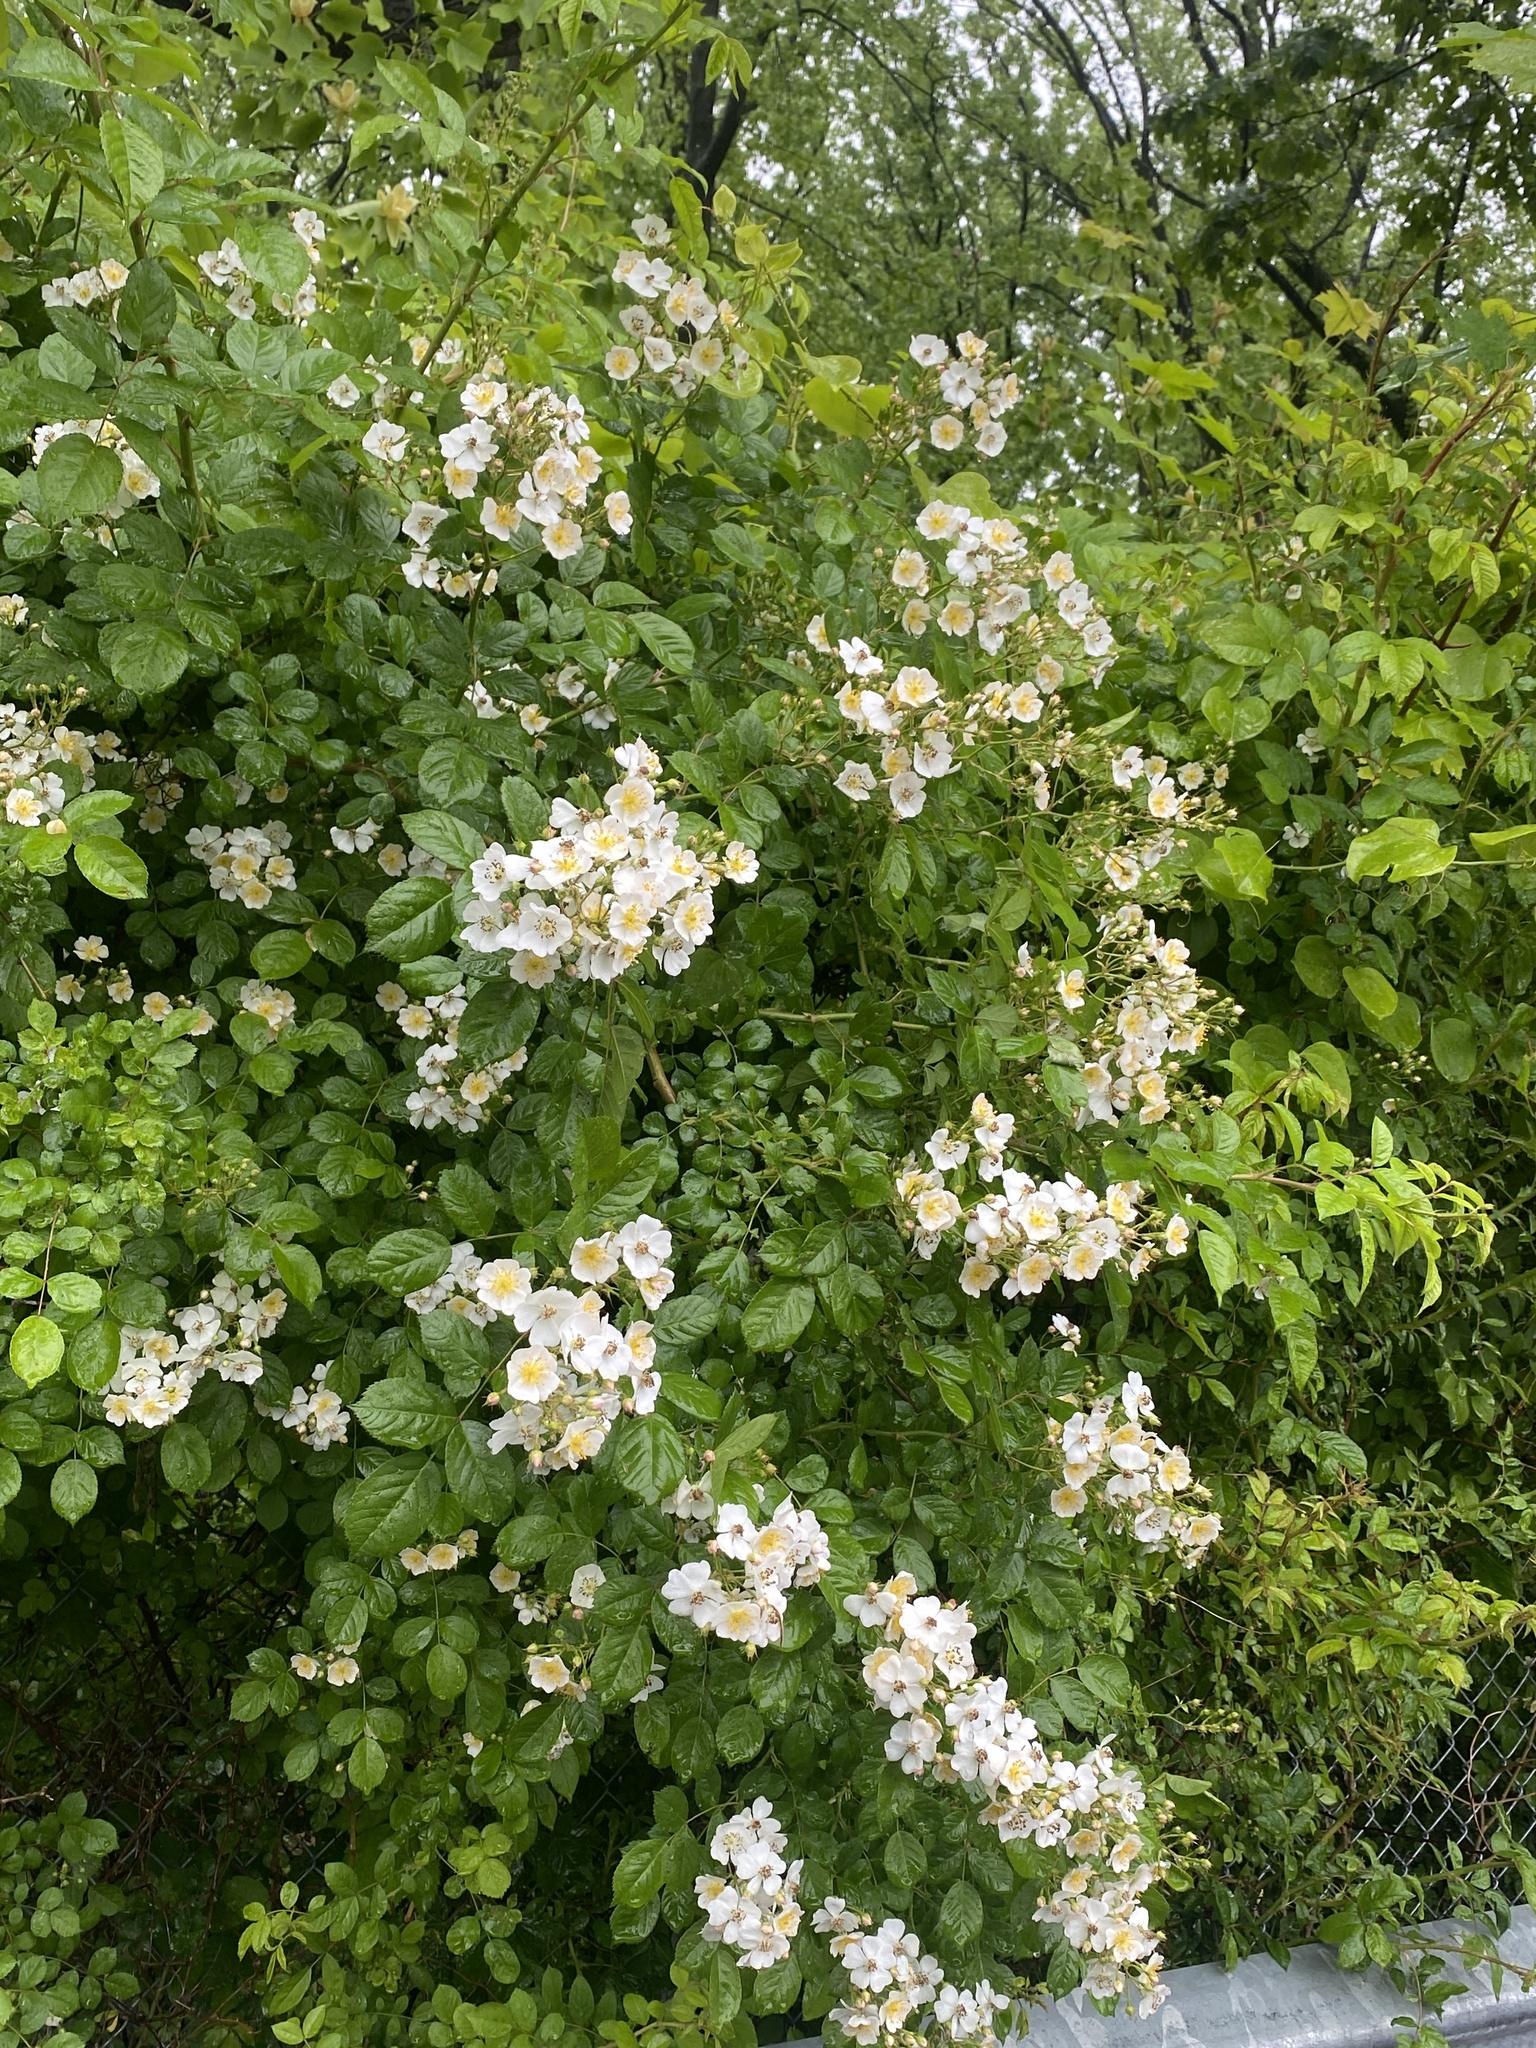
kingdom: Plantae
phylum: Tracheophyta
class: Magnoliopsida
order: Rosales
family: Rosaceae
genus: Rosa
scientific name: Rosa multiflora
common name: Multiflora rose
